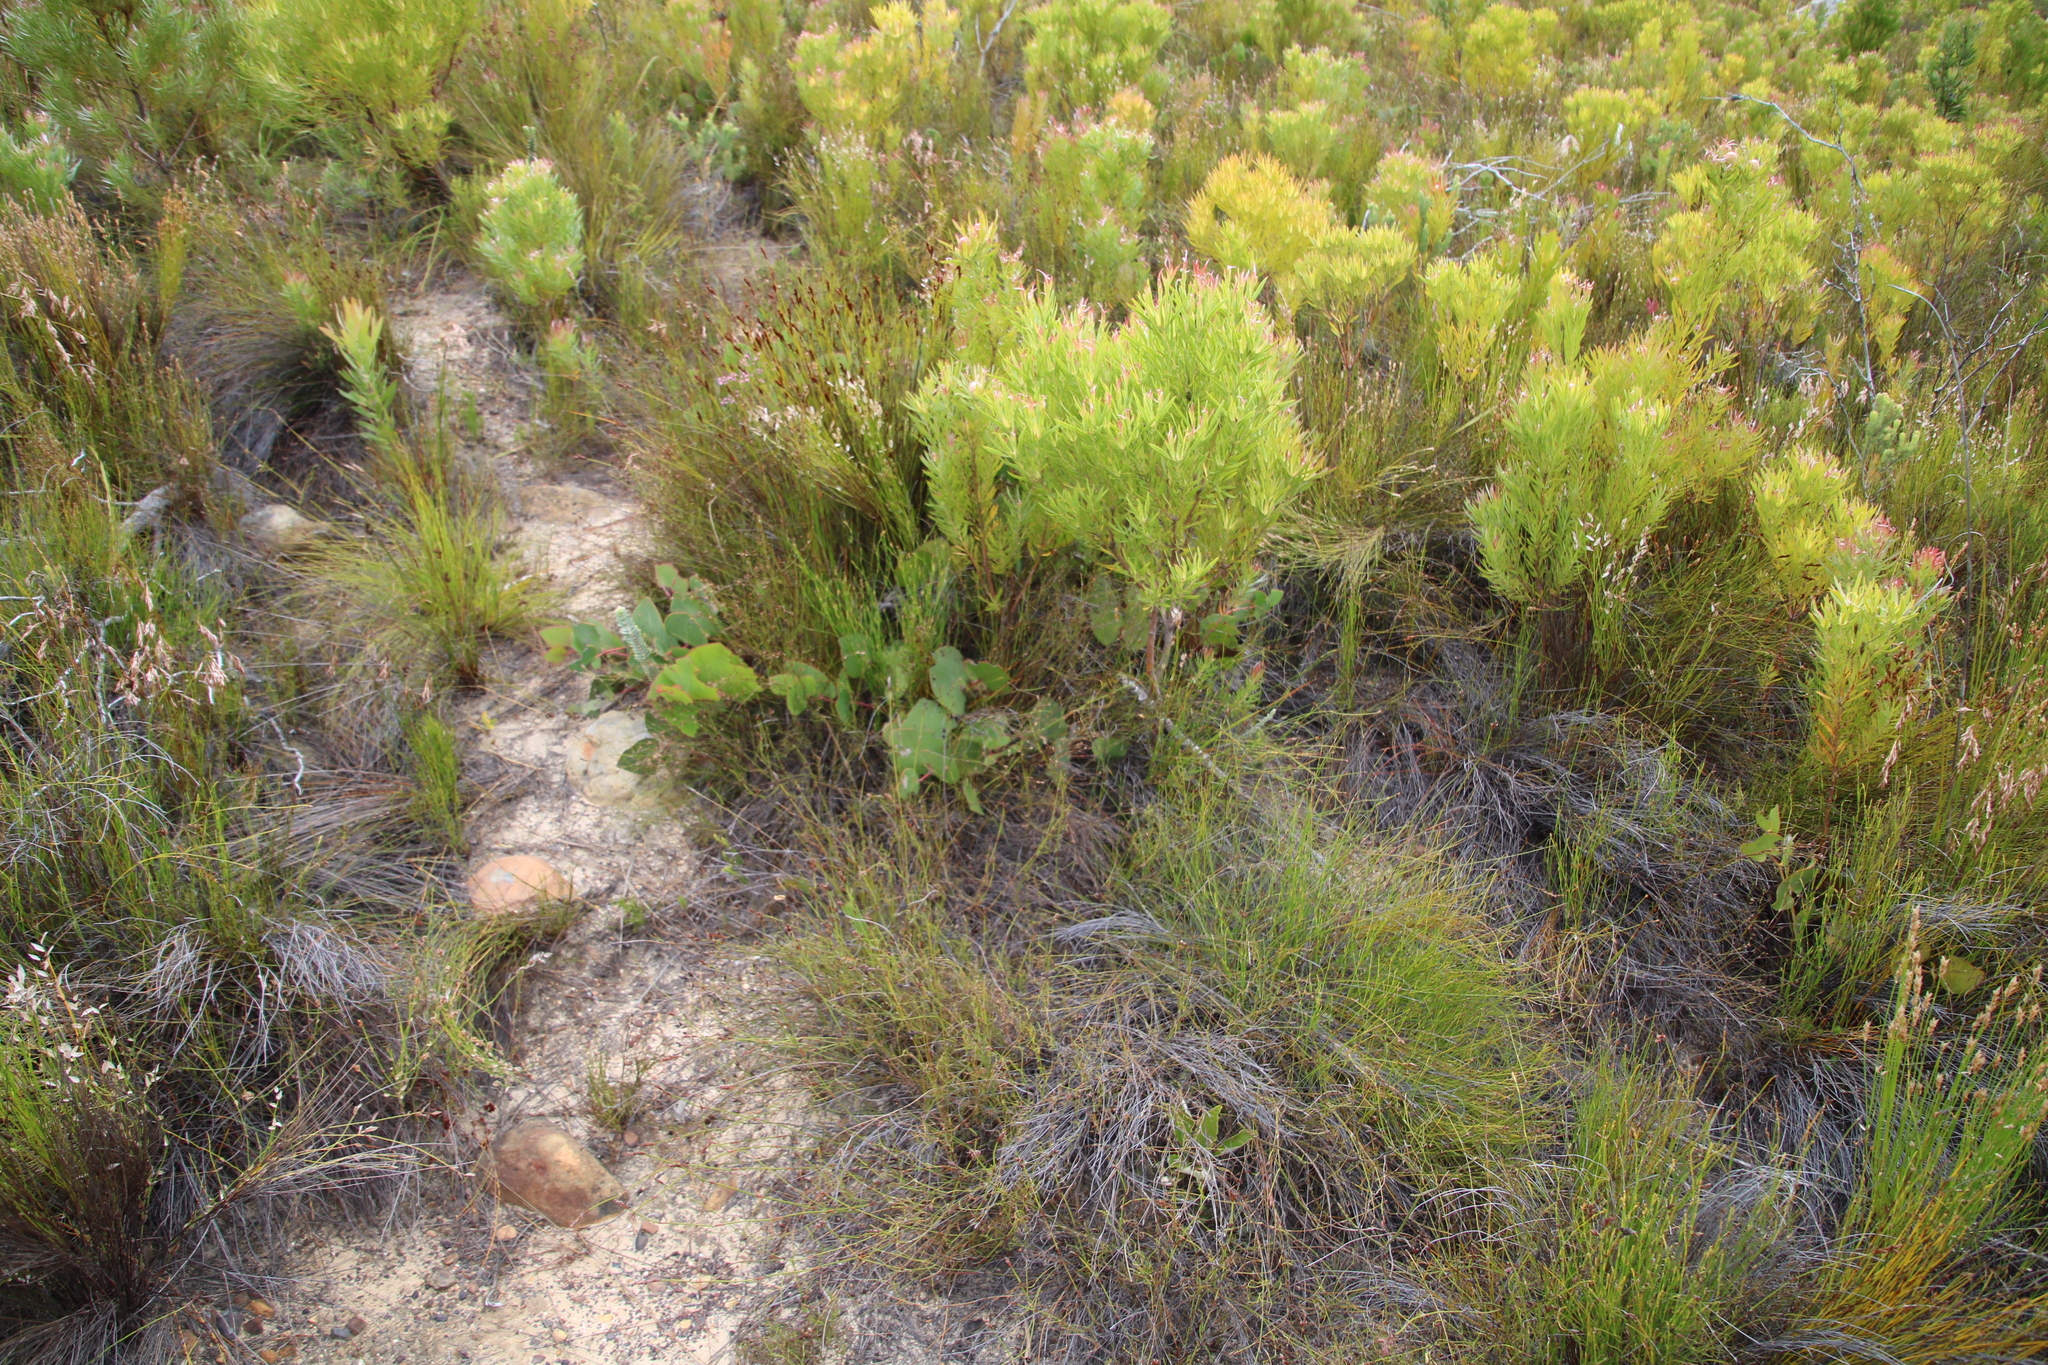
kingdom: Plantae
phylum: Tracheophyta
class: Magnoliopsida
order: Proteales
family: Proteaceae
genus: Protea
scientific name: Protea cordata
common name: Heart-leaf sugarbush
